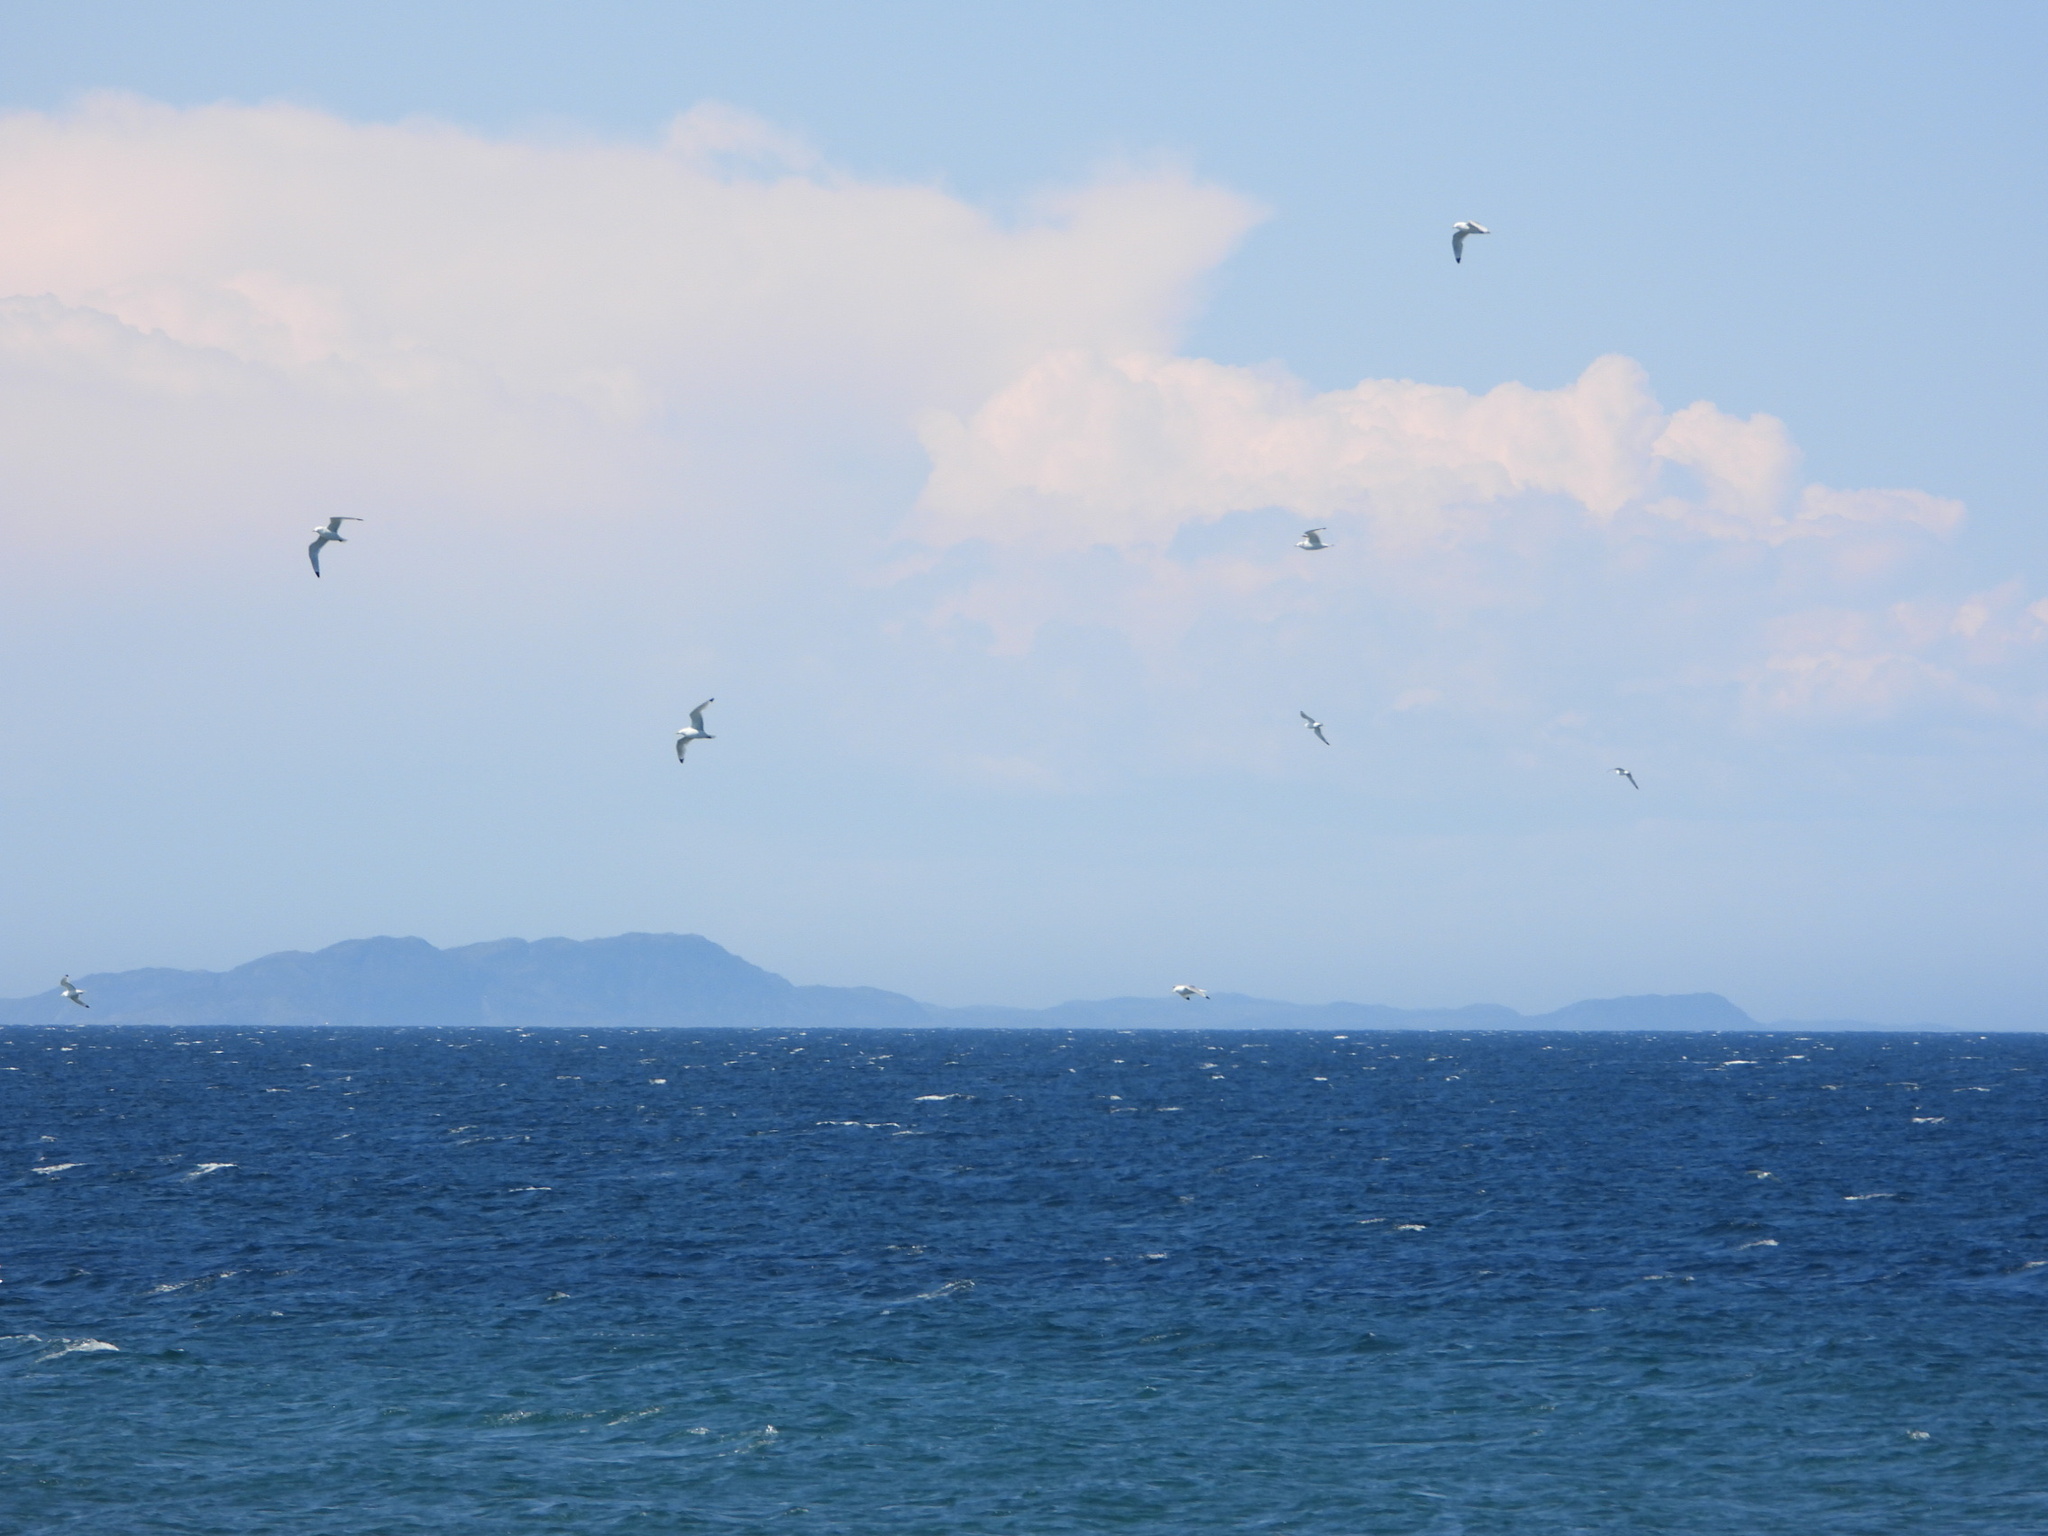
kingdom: Animalia
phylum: Chordata
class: Aves
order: Charadriiformes
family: Laridae
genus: Rissa
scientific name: Rissa tridactyla
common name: Black-legged kittiwake
